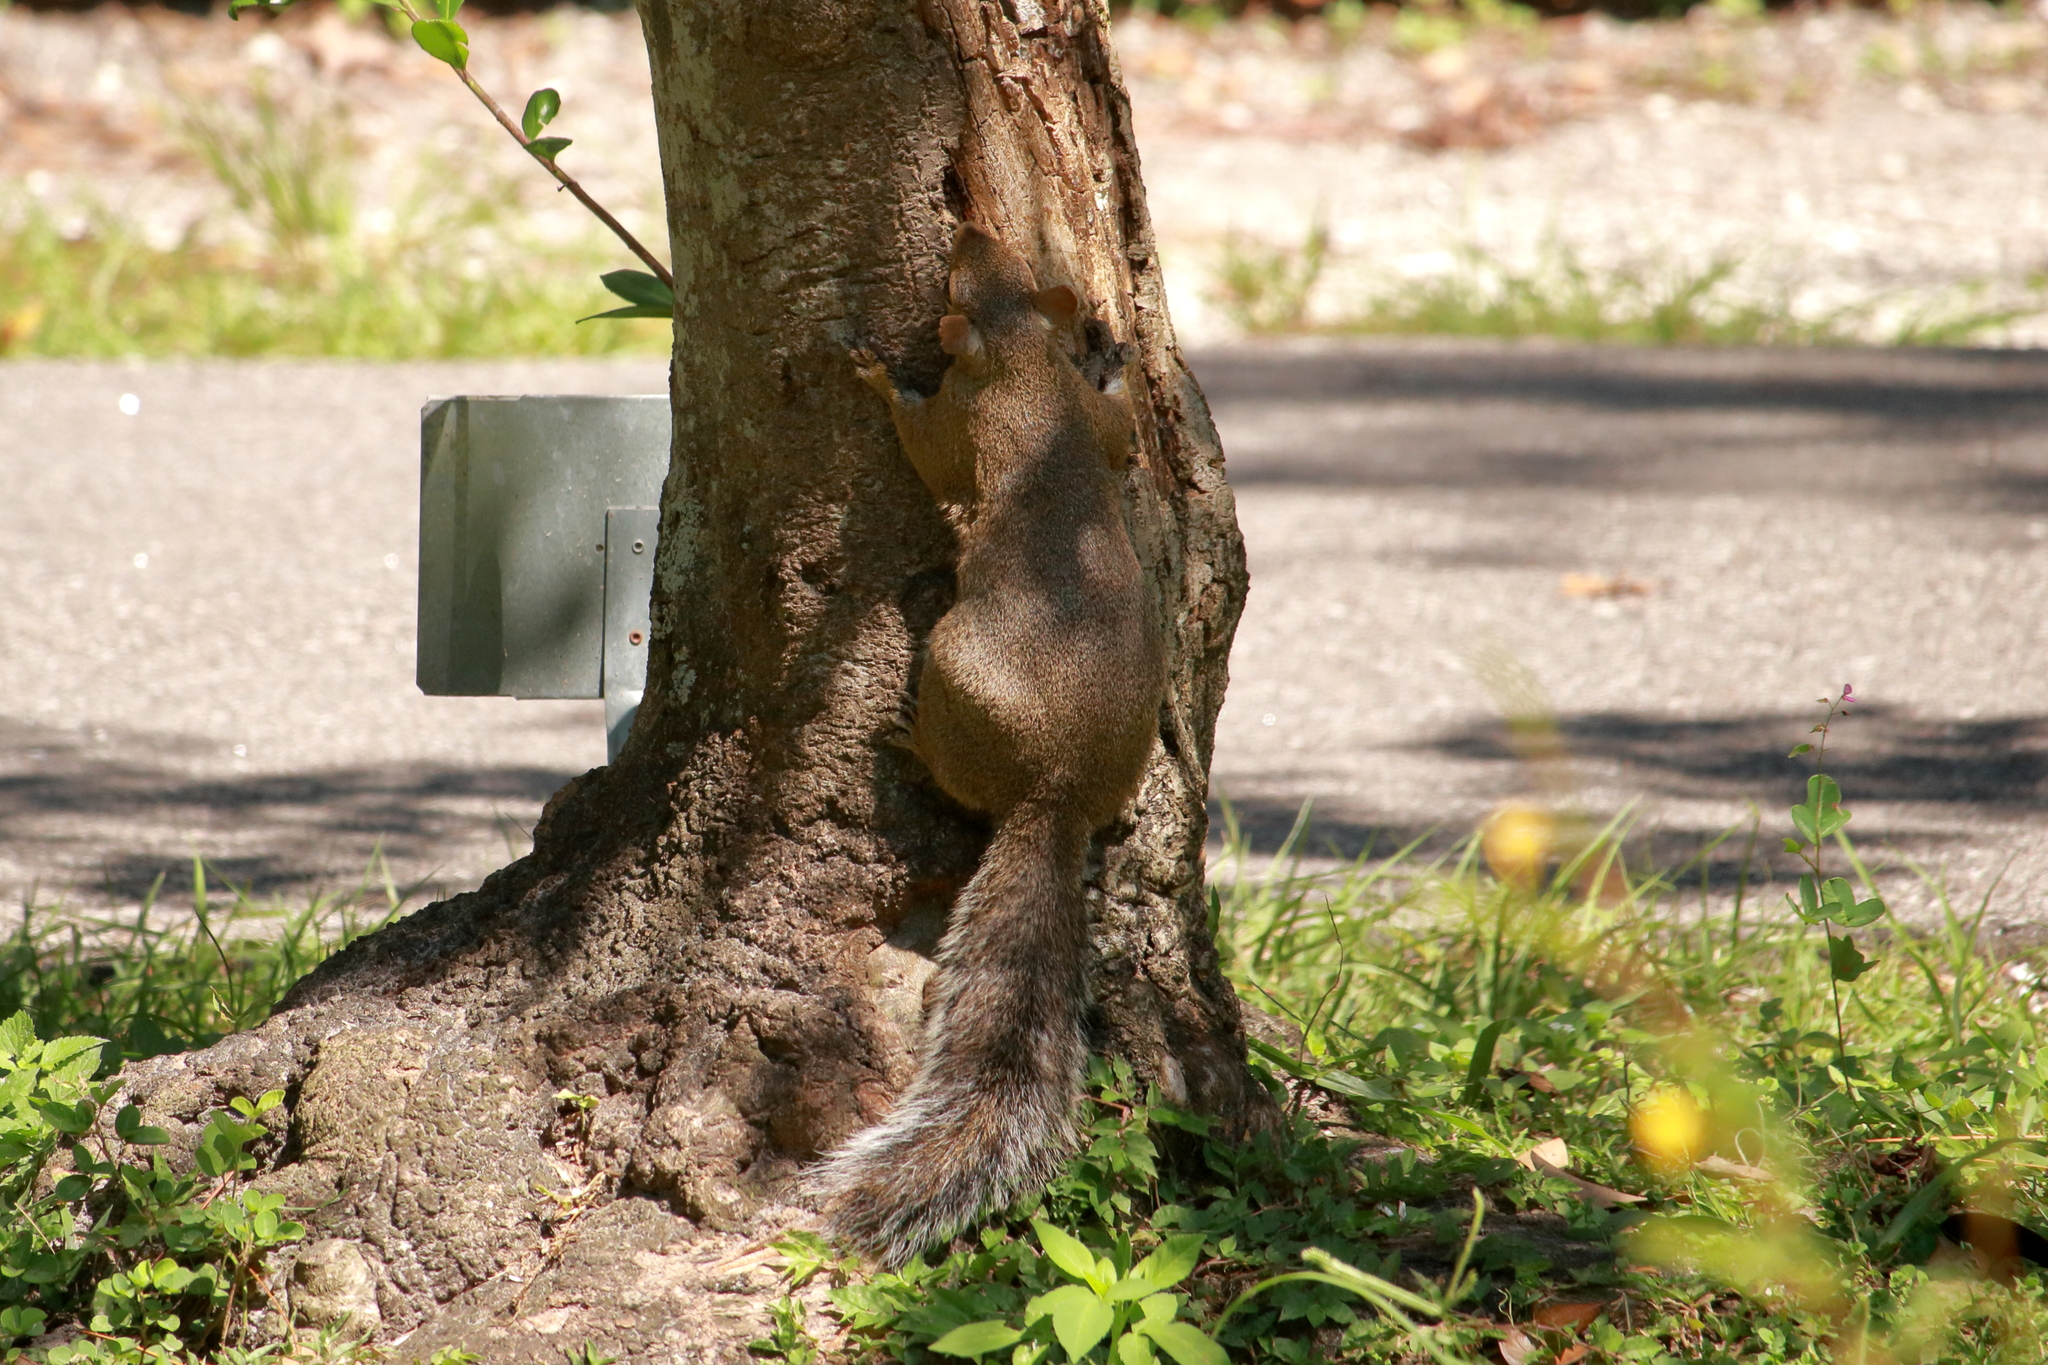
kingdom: Animalia
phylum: Chordata
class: Mammalia
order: Rodentia
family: Sciuridae
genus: Sciurus
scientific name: Sciurus carolinensis
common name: Eastern gray squirrel
